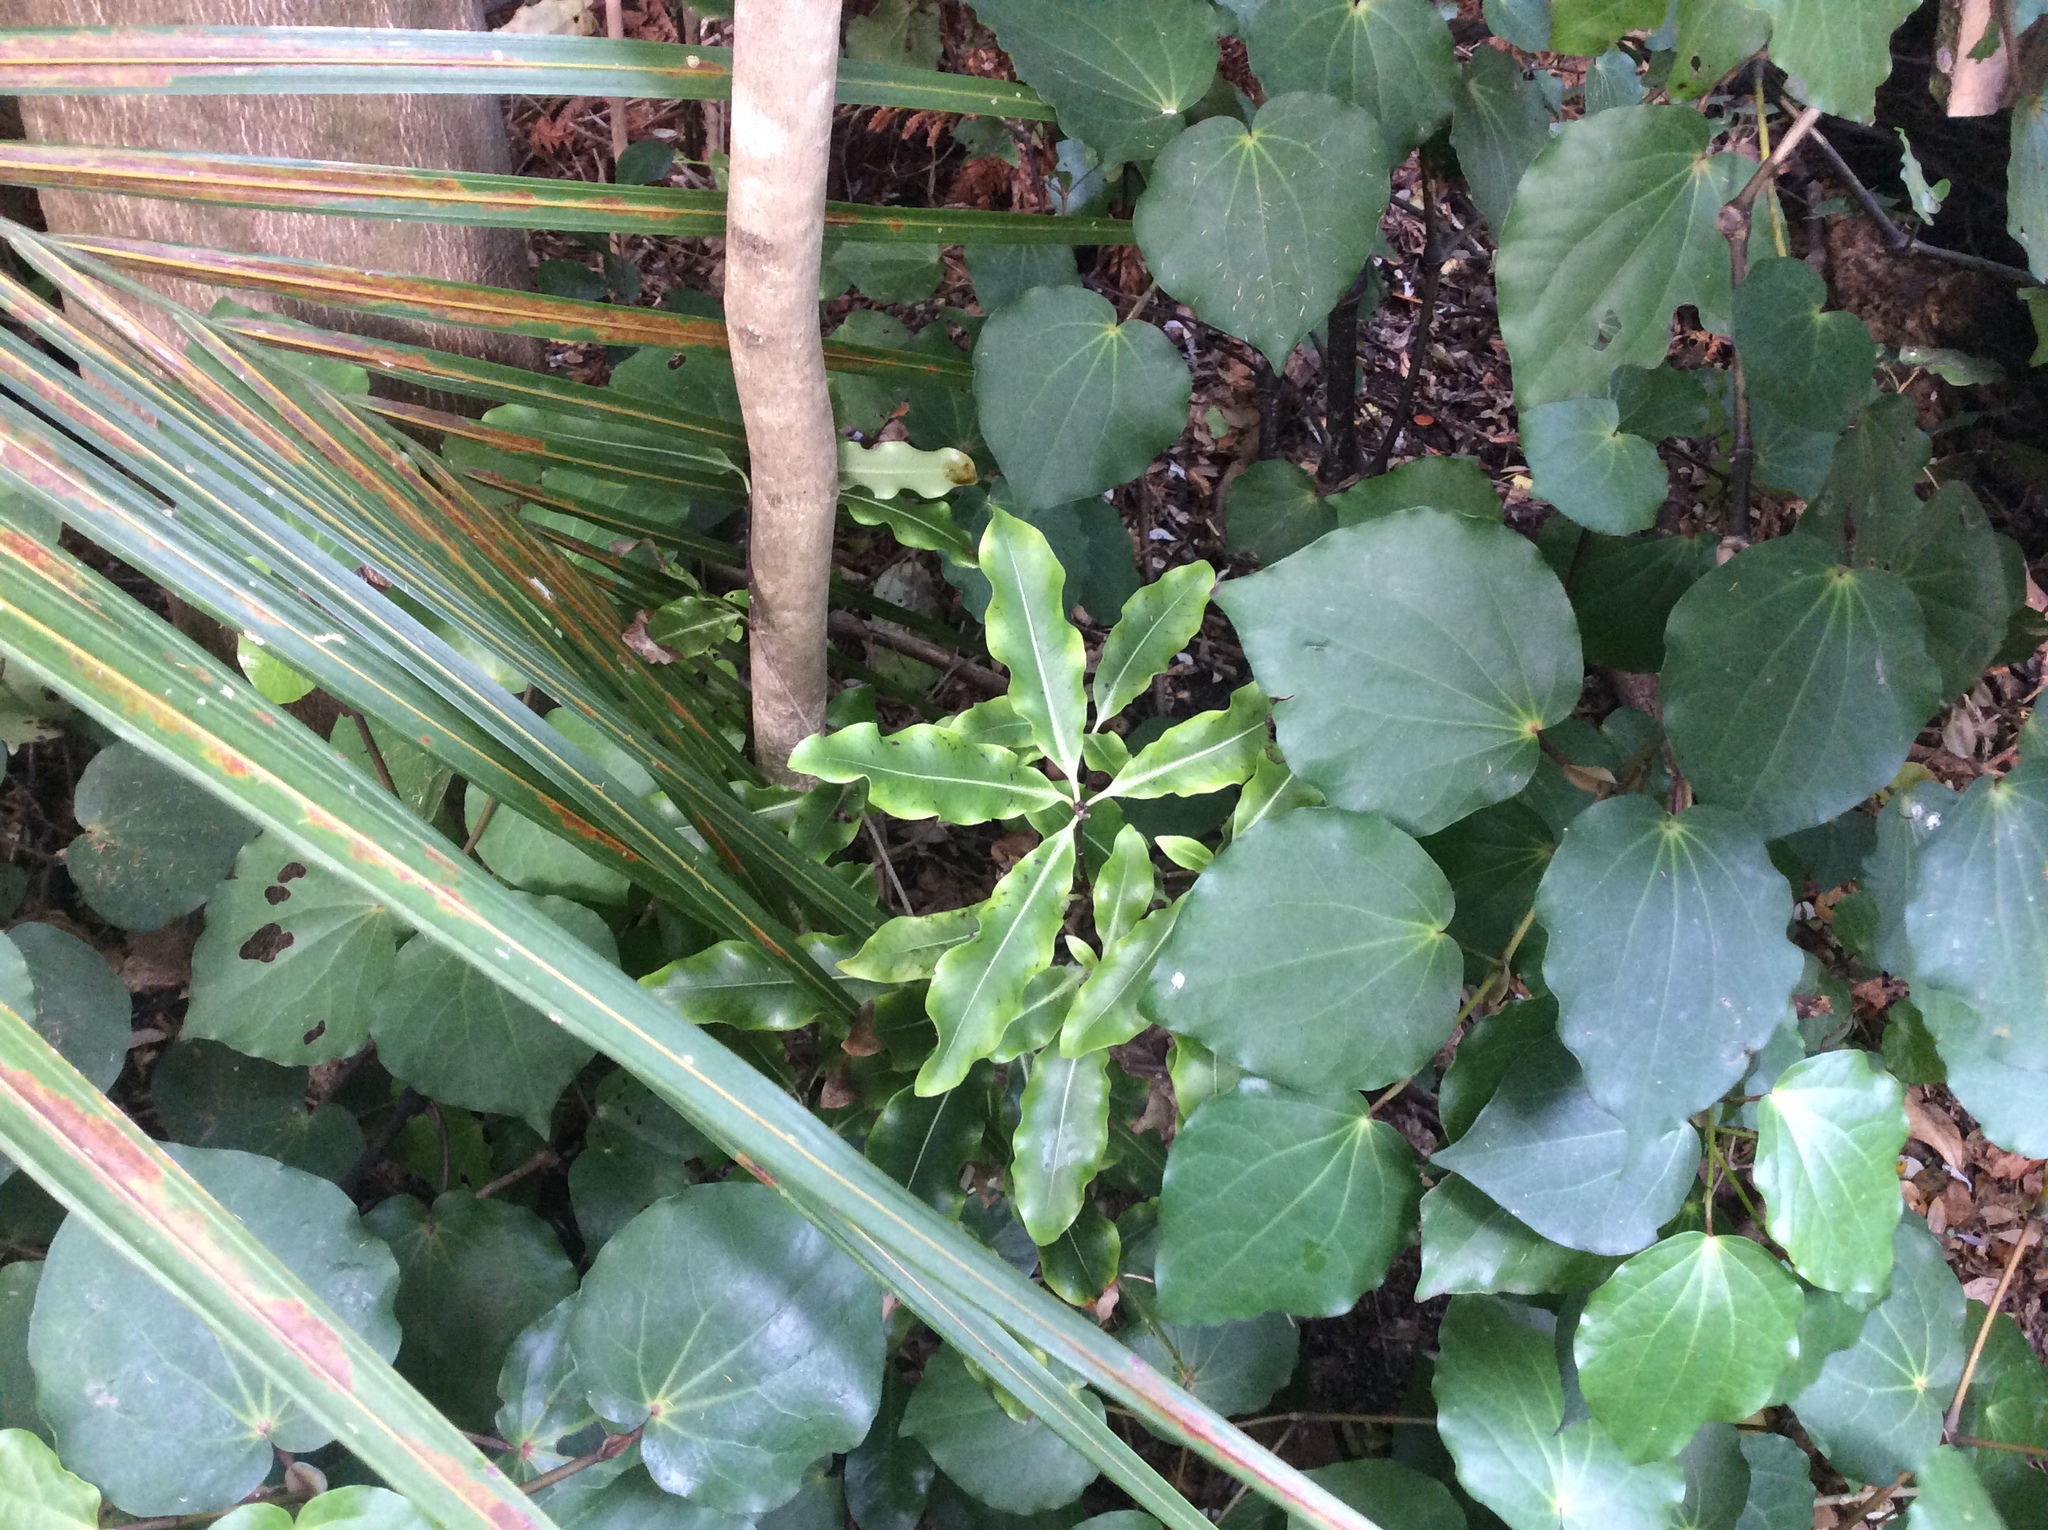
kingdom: Plantae
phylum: Tracheophyta
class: Magnoliopsida
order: Apiales
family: Pittosporaceae
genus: Pittosporum
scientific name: Pittosporum eugenioides
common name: Lemonwood
